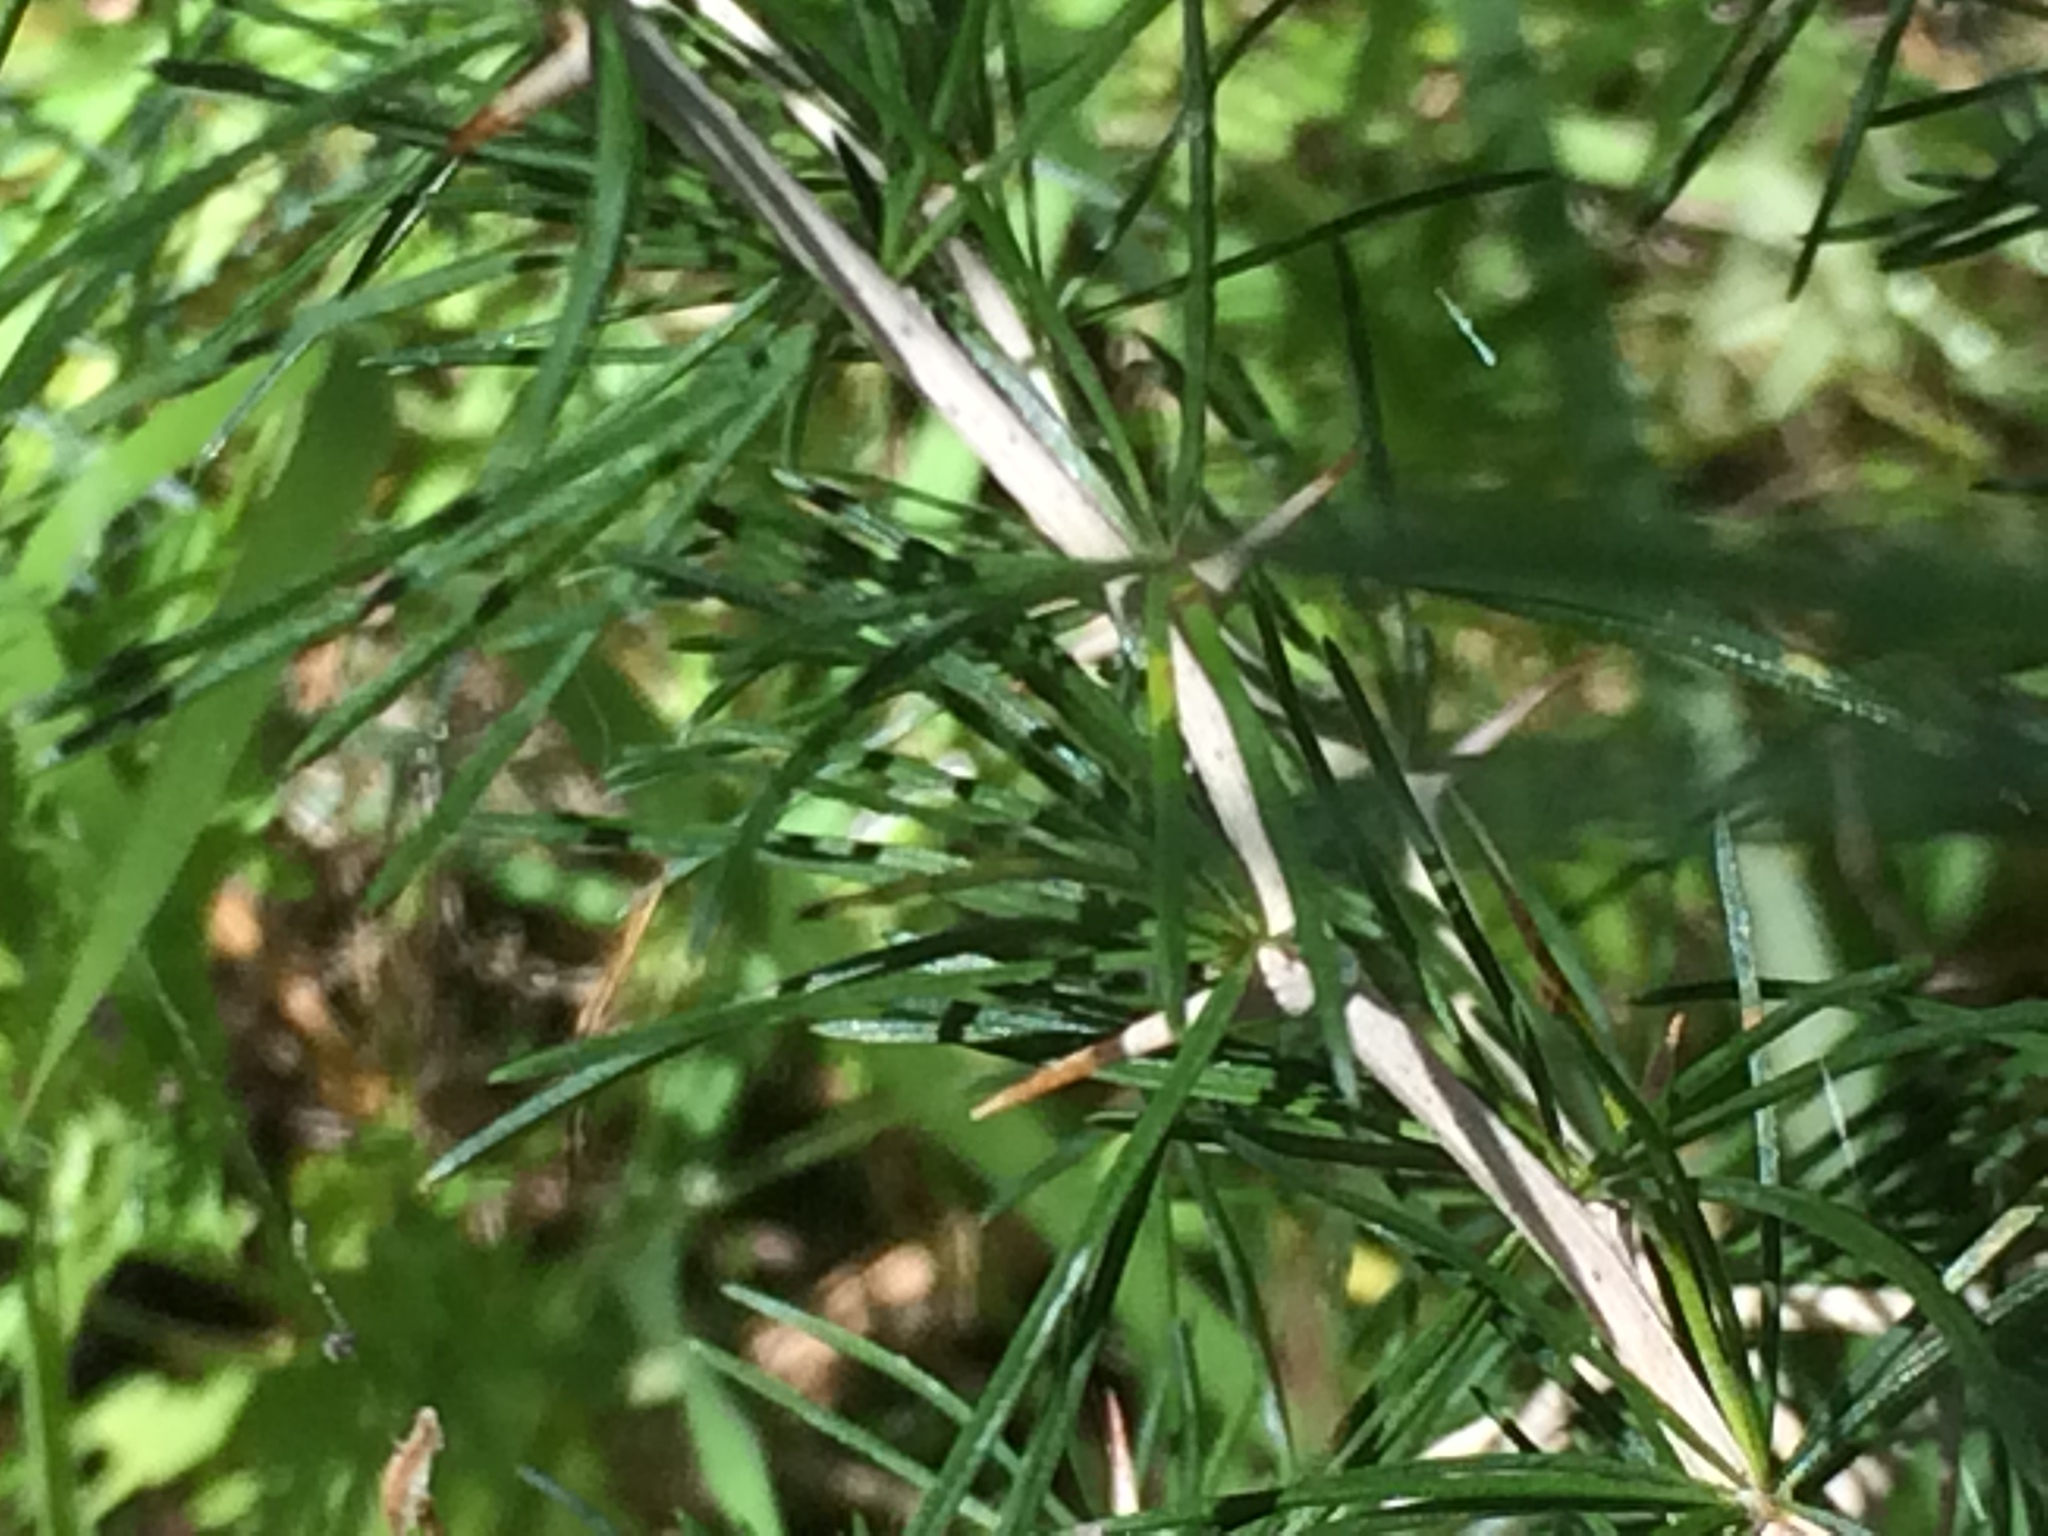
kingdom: Plantae
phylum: Tracheophyta
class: Liliopsida
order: Asparagales
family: Asparagaceae
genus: Asparagus
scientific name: Asparagus albus
